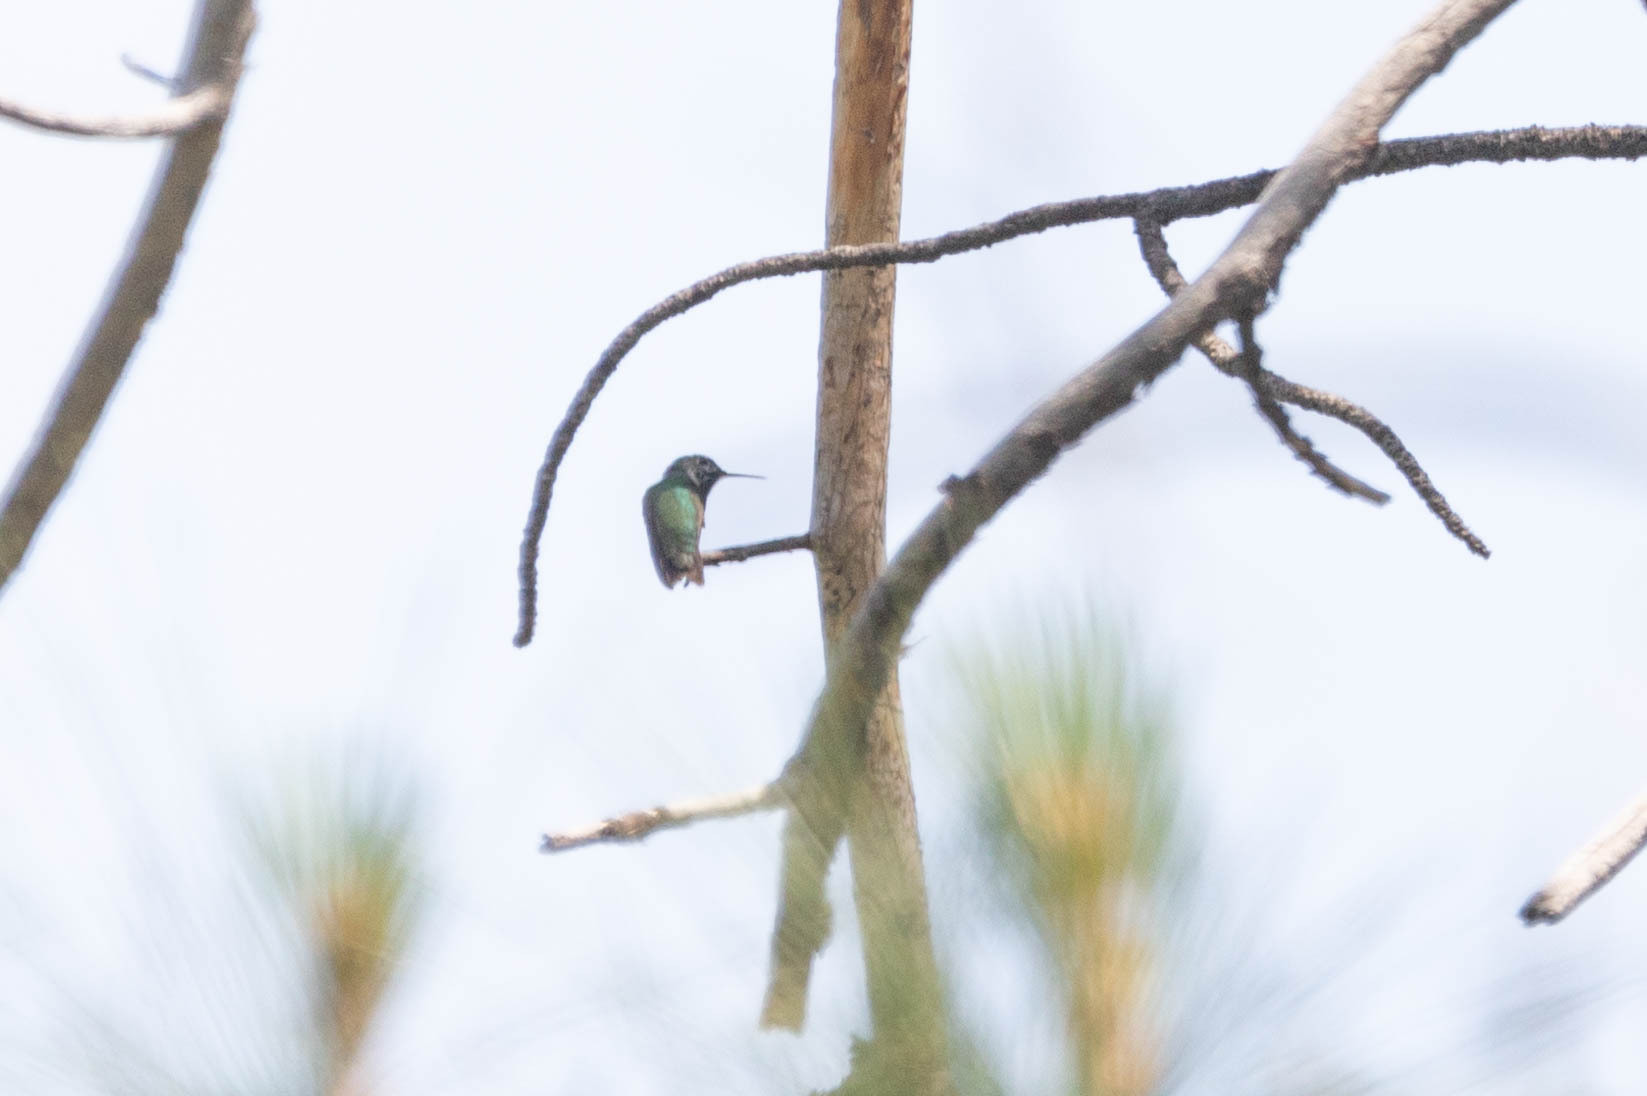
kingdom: Animalia
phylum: Chordata
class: Aves
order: Apodiformes
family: Trochilidae
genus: Selasphorus
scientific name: Selasphorus calliope
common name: Calliope hummingbird
